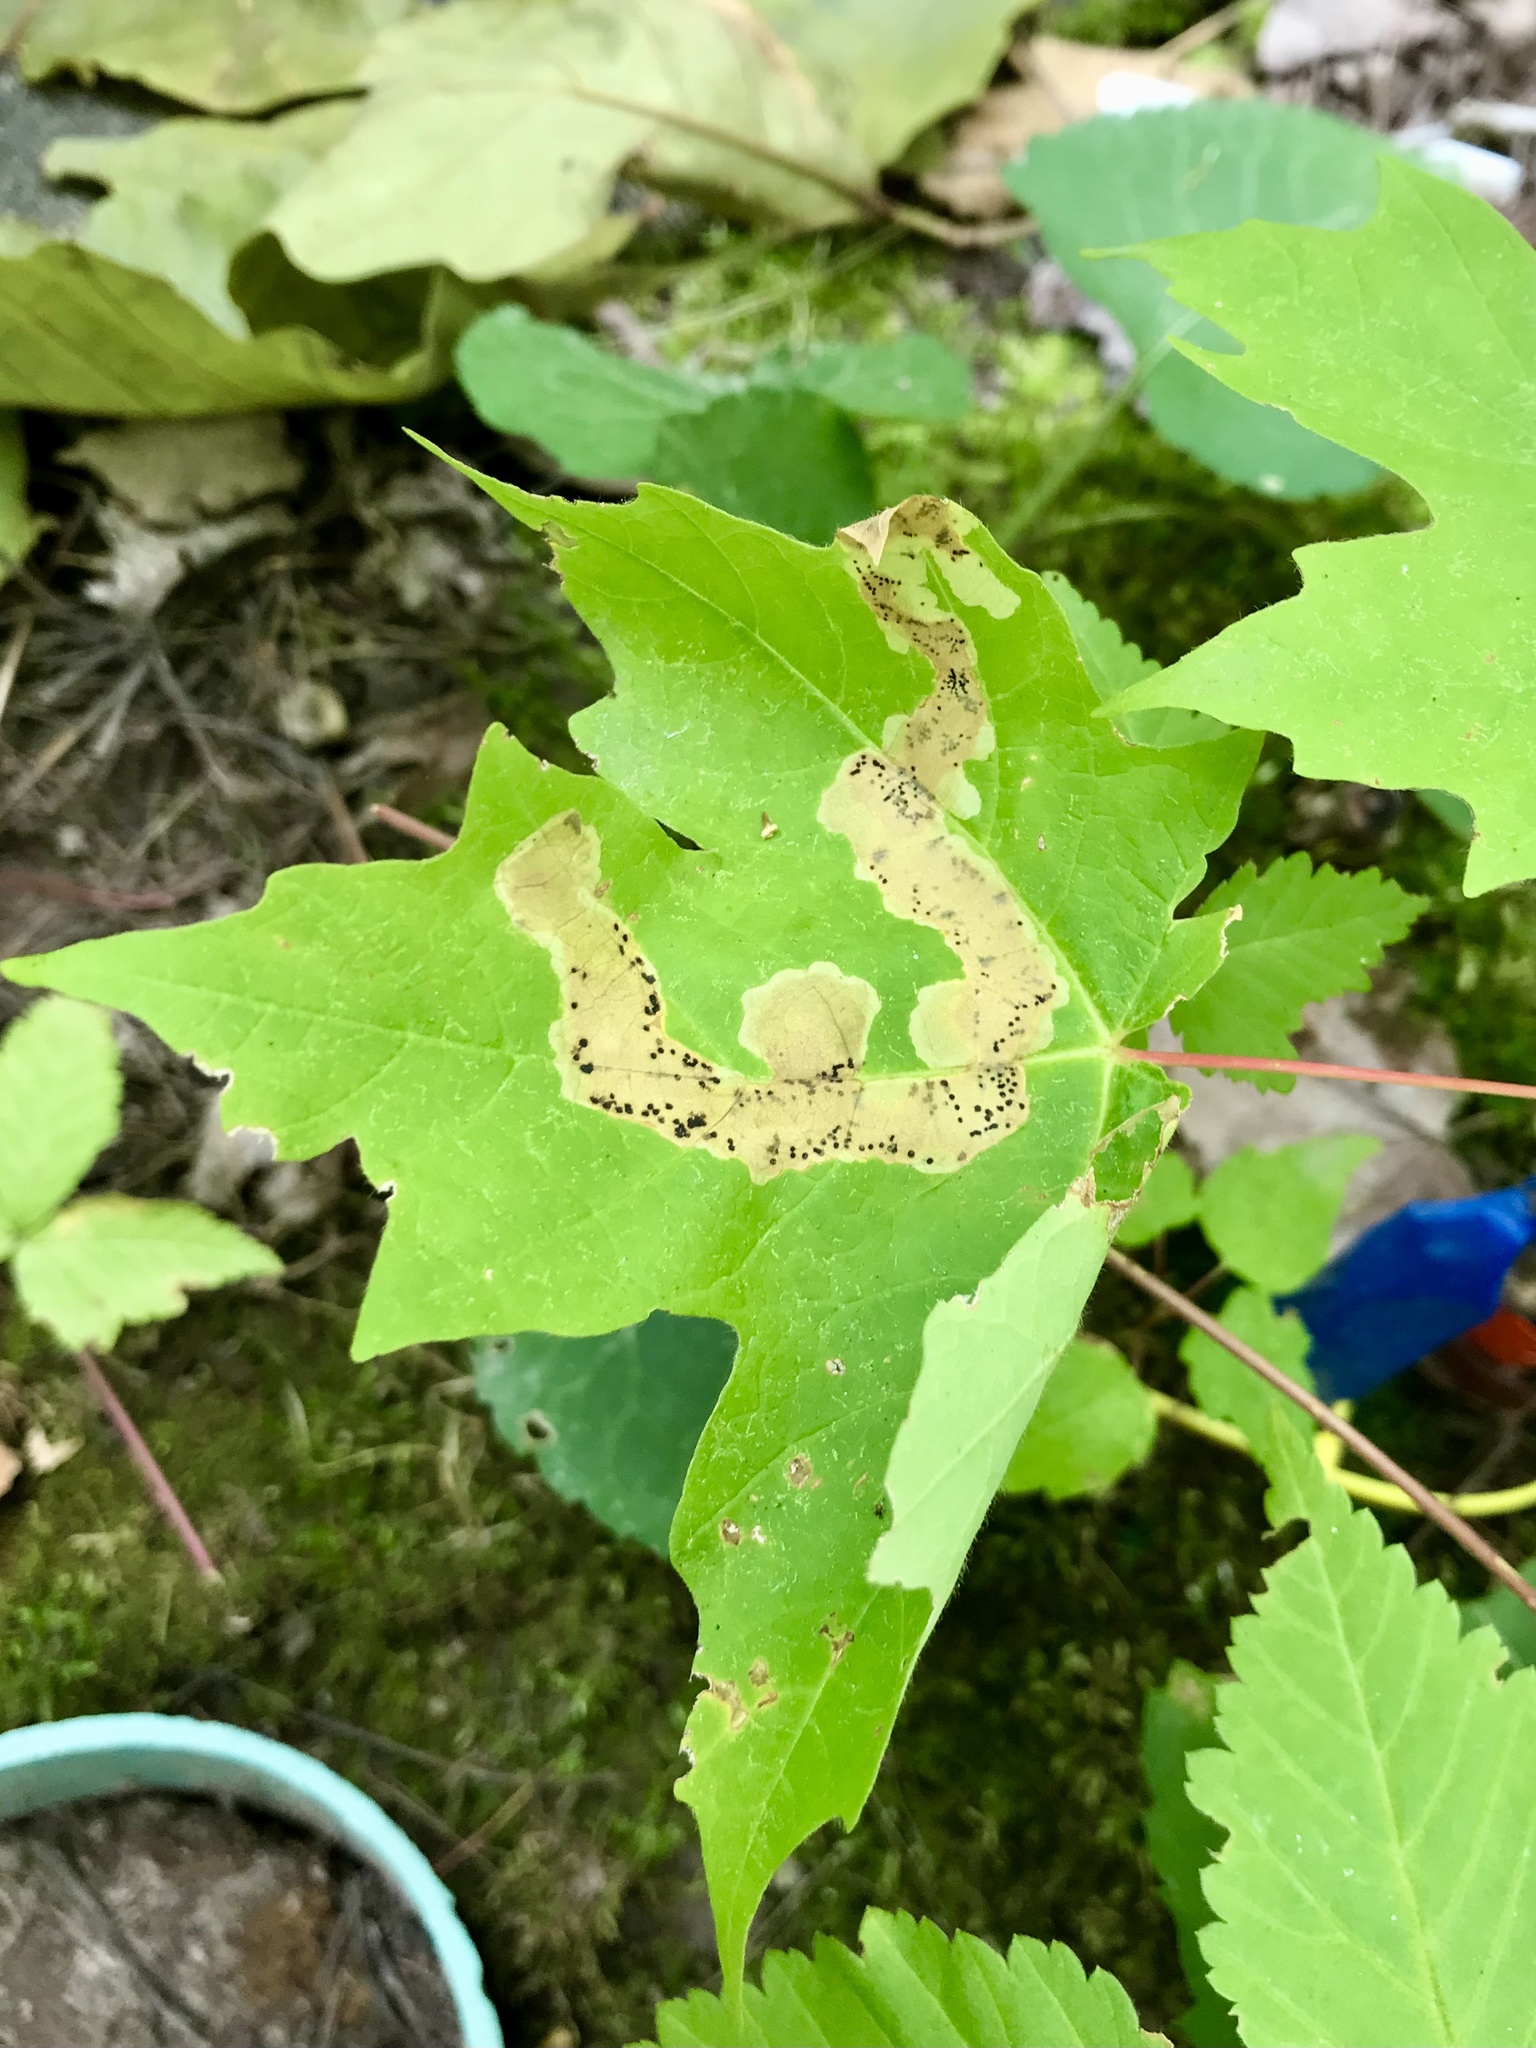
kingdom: Animalia
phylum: Arthropoda
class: Insecta
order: Lepidoptera
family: Gracillariidae
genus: Cameraria
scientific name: Cameraria aceriella
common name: Maple leafblotch miner
